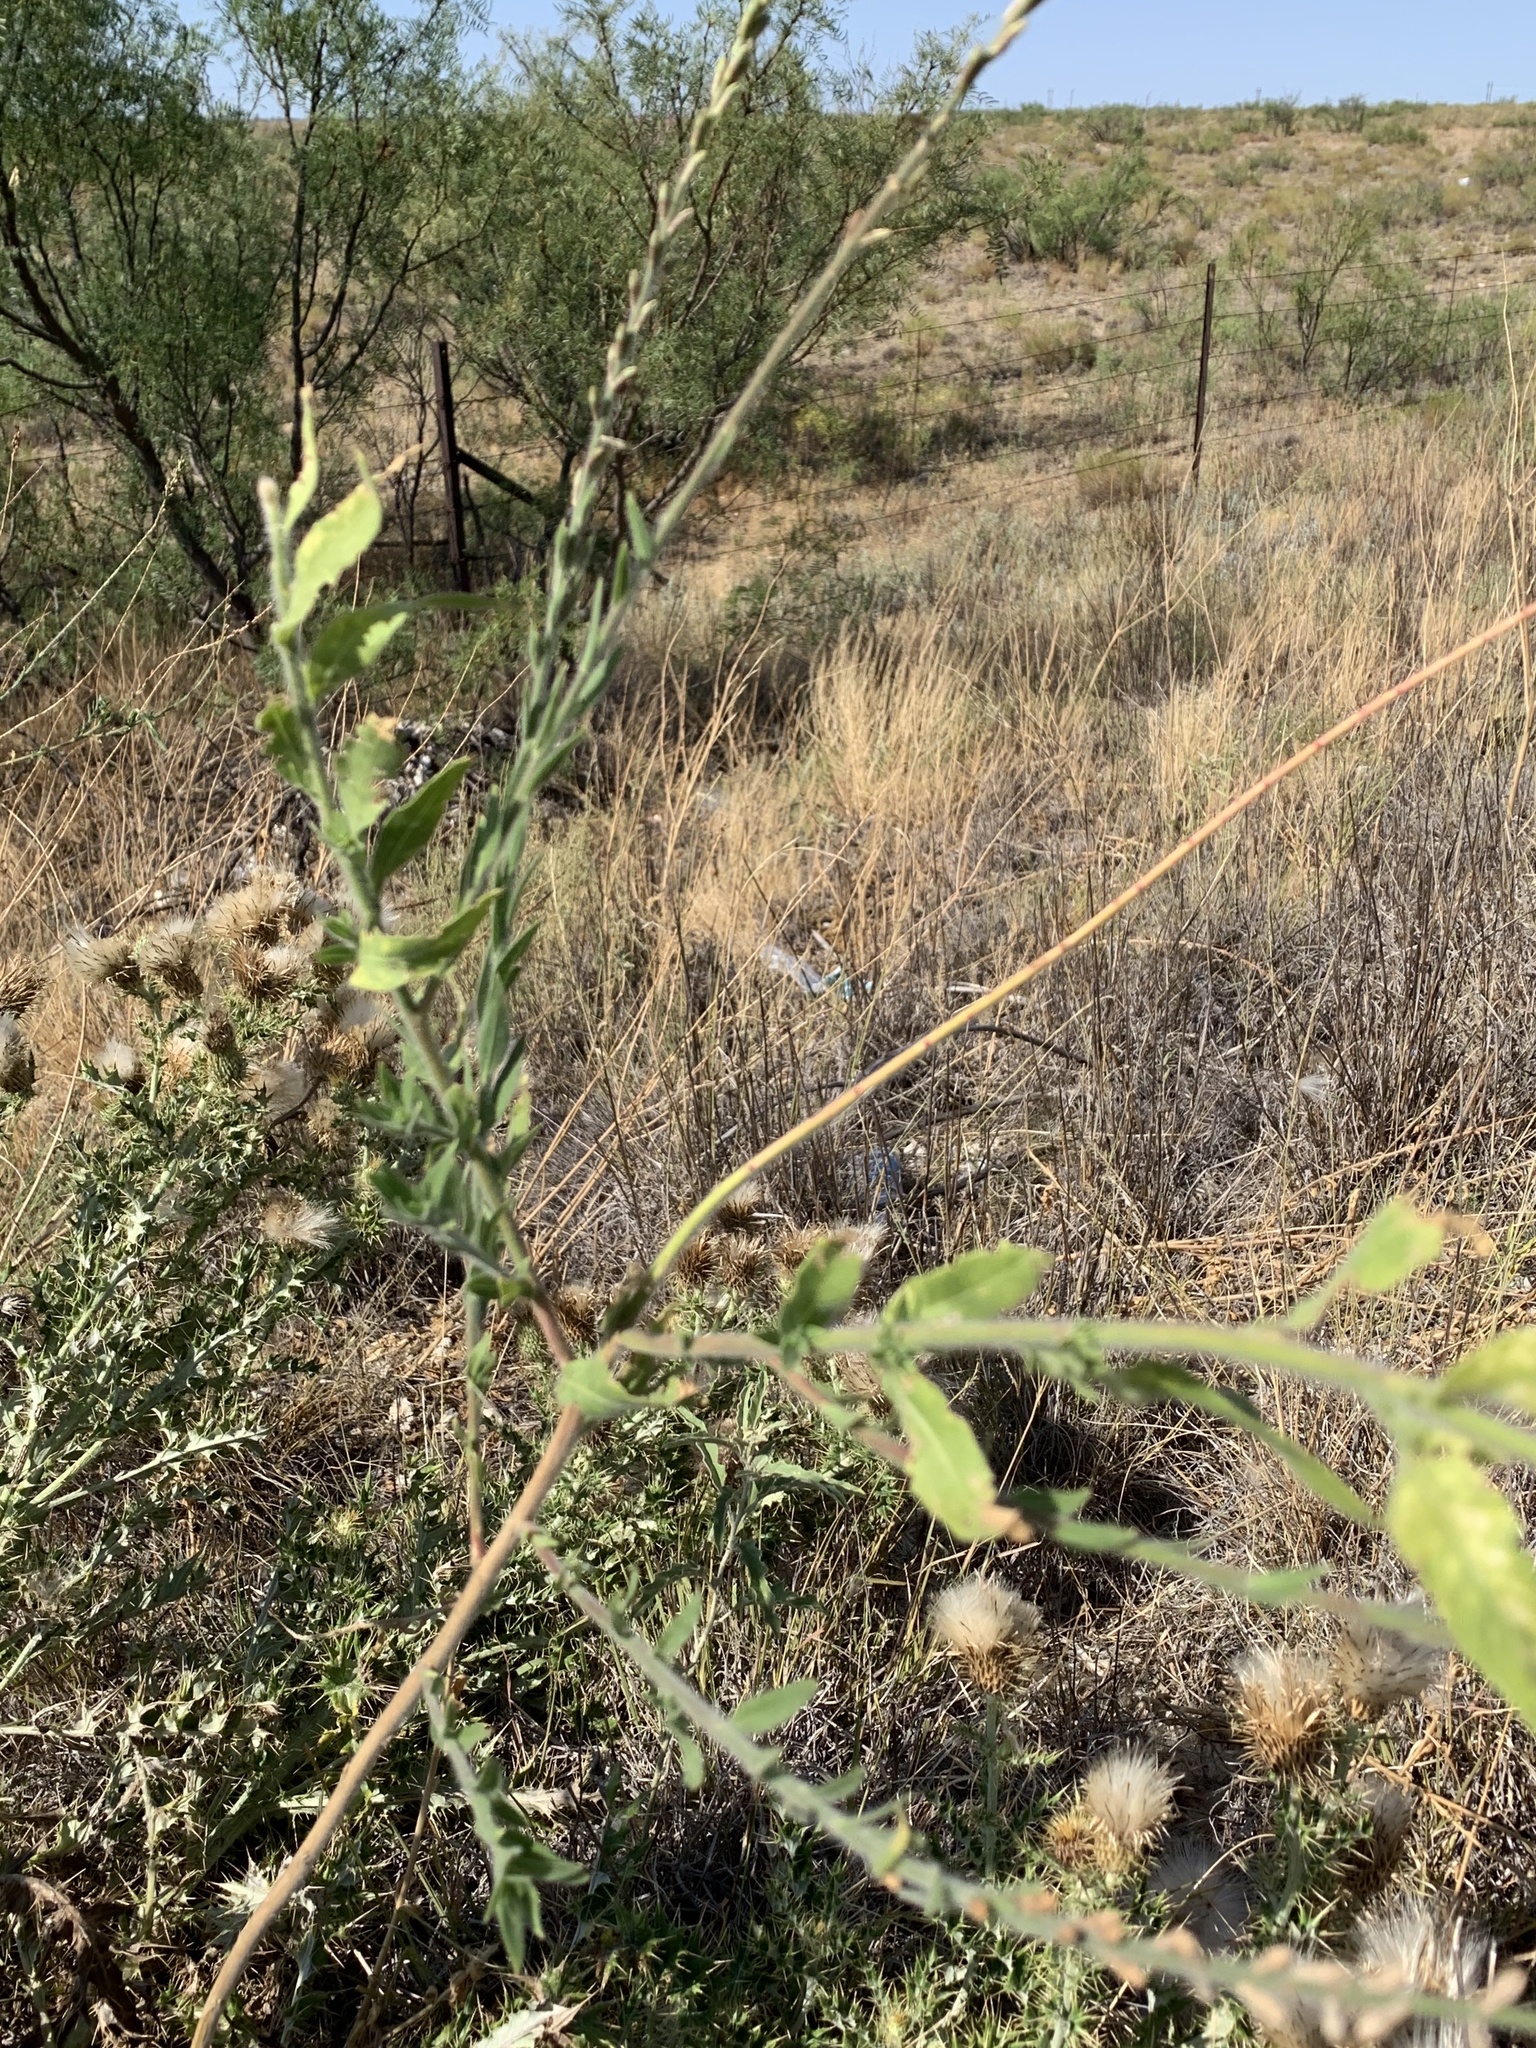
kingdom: Plantae
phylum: Tracheophyta
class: Magnoliopsida
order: Myrtales
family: Onagraceae
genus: Oenothera
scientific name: Oenothera curtiflora
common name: Velvetweed
